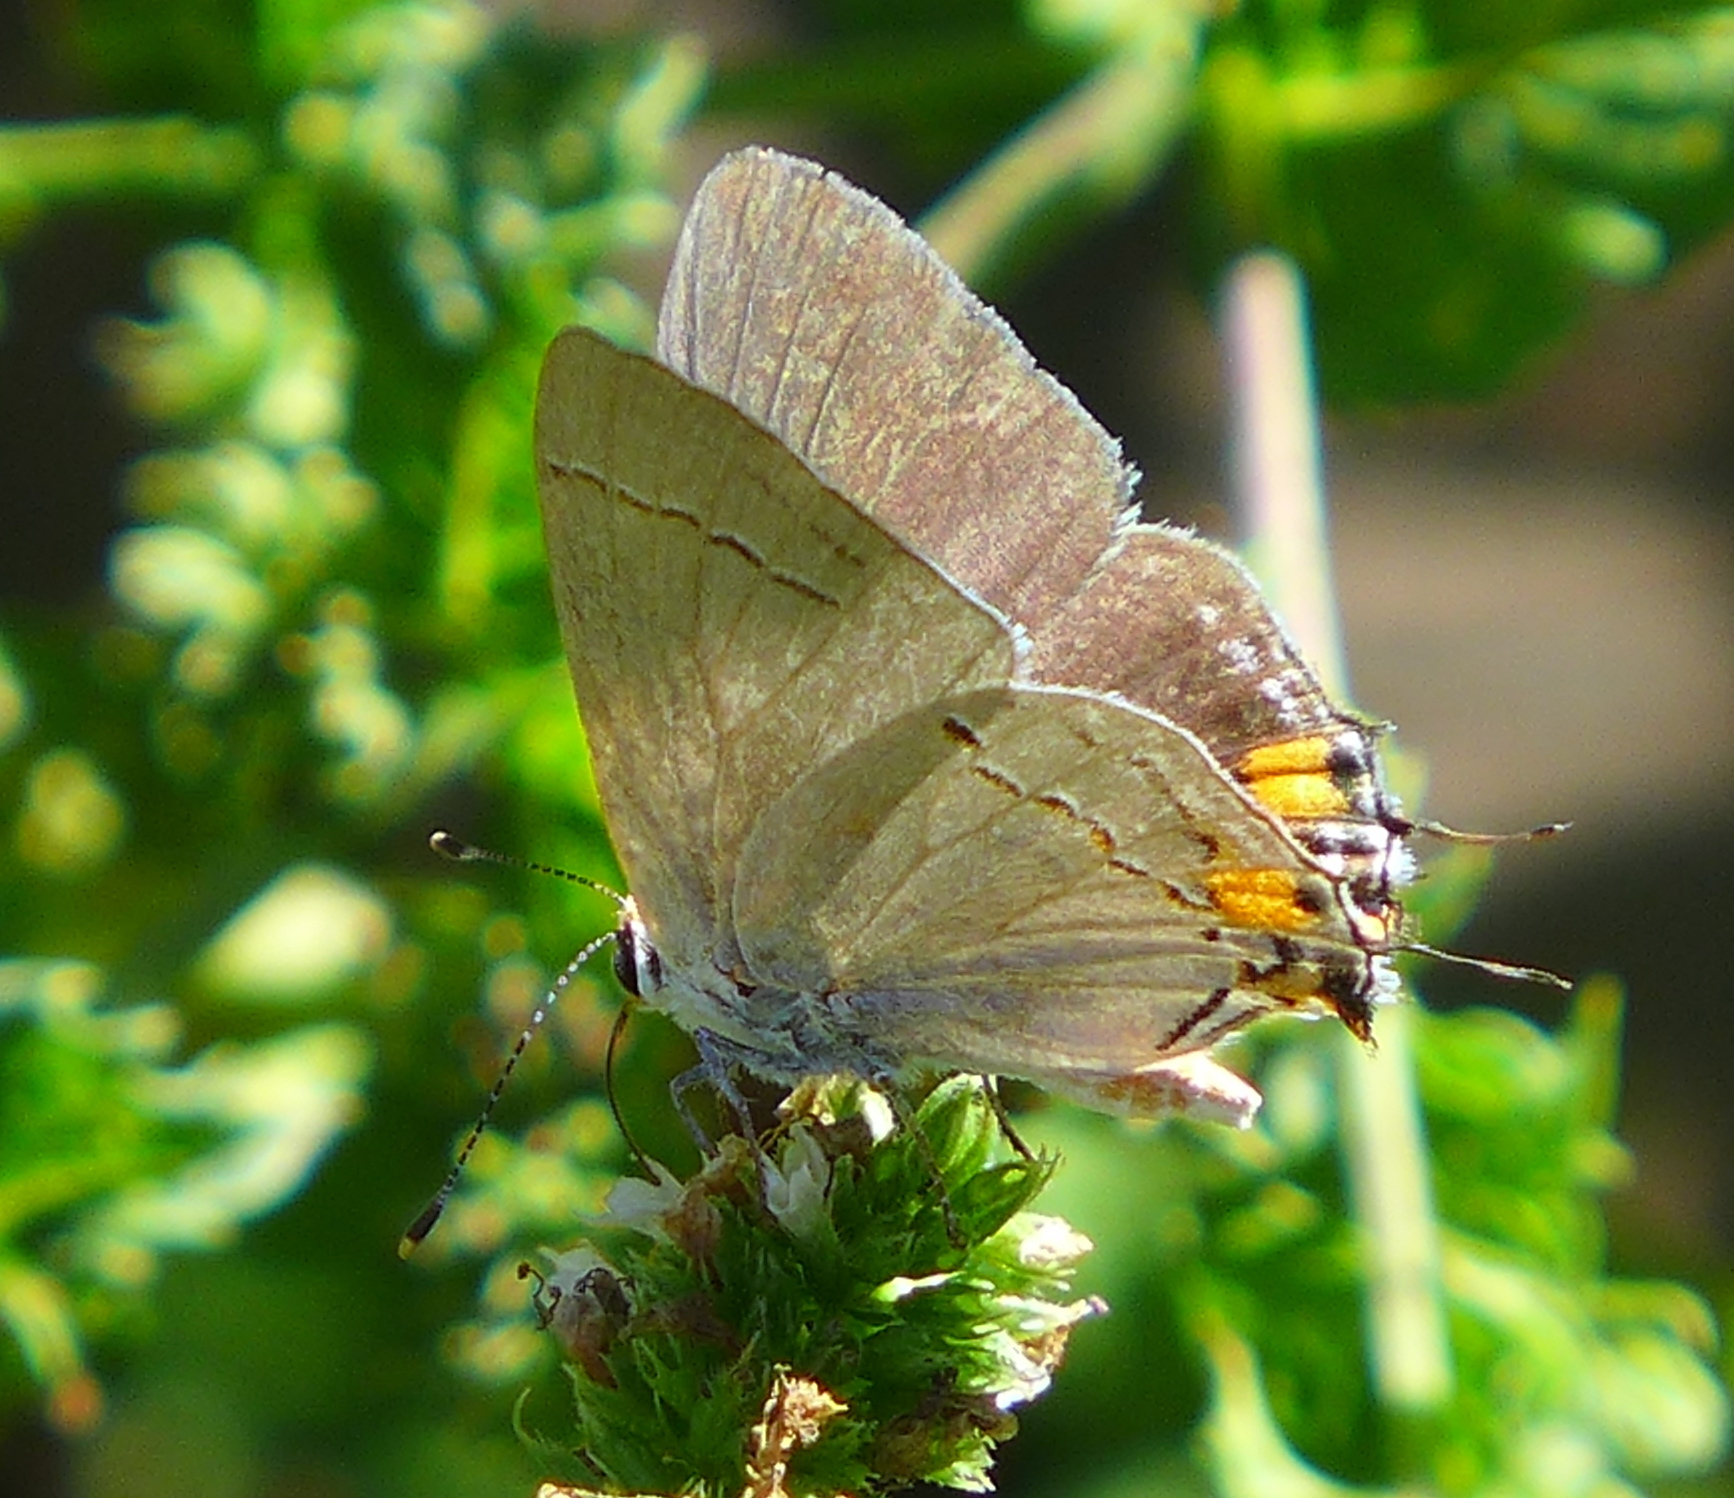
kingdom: Animalia
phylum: Arthropoda
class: Insecta
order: Lepidoptera
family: Lycaenidae
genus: Strymon
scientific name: Strymon melinus
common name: Gray hairstreak
